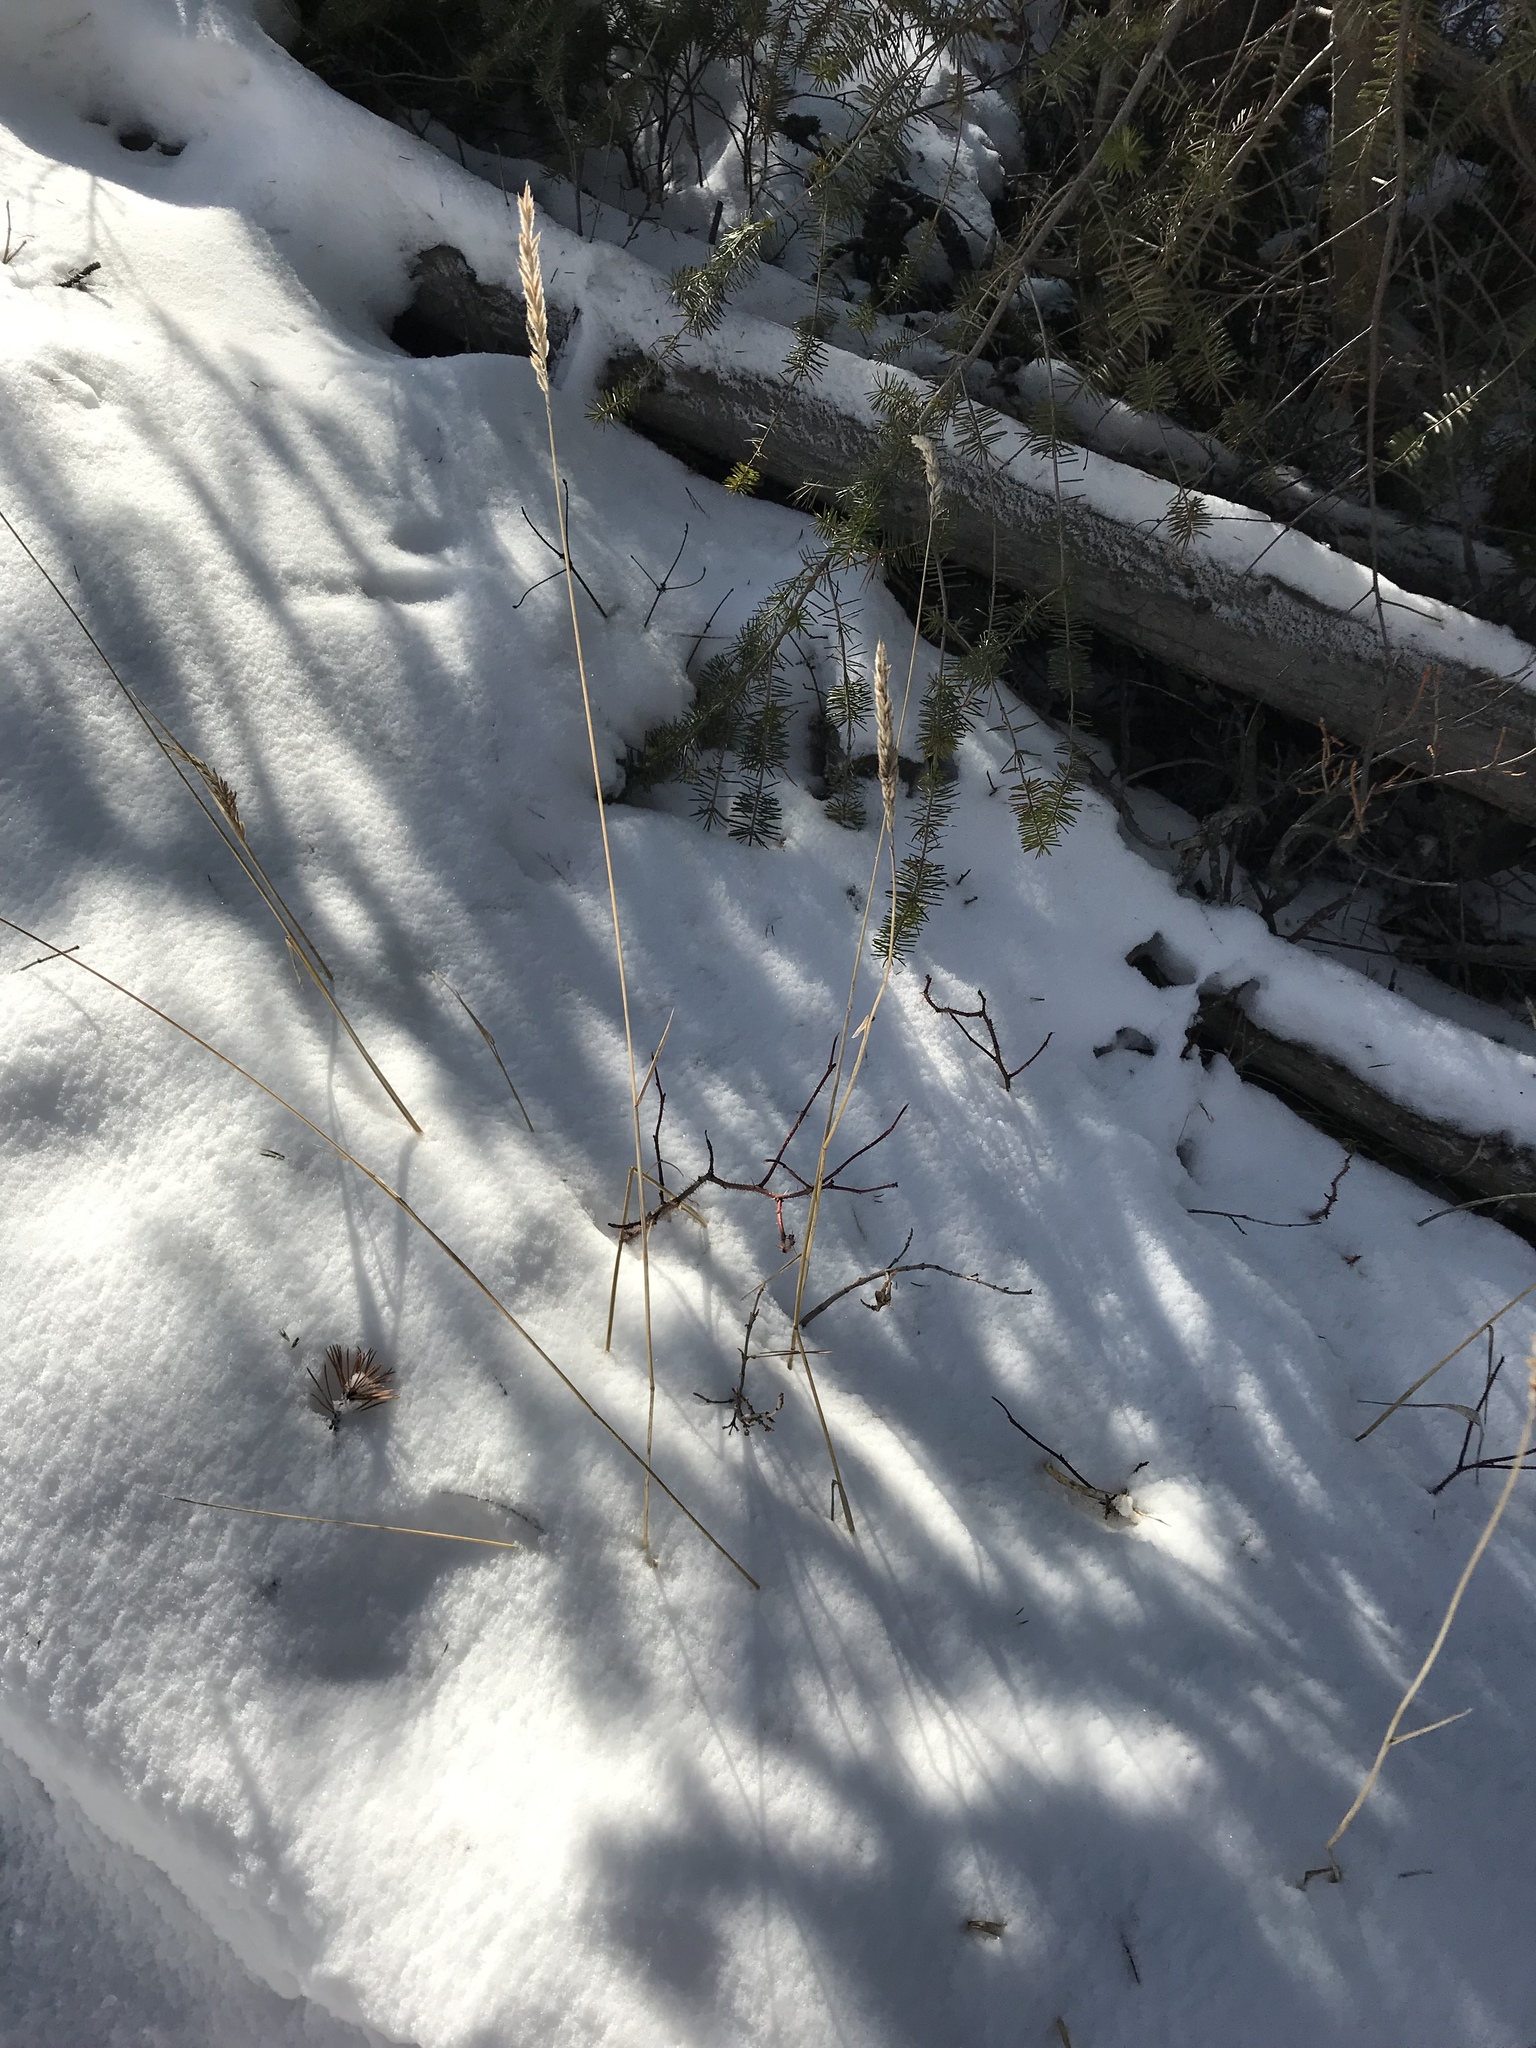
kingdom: Plantae
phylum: Tracheophyta
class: Liliopsida
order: Poales
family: Poaceae
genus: Leymus
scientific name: Leymus innovatus
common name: Boreal wild rye
